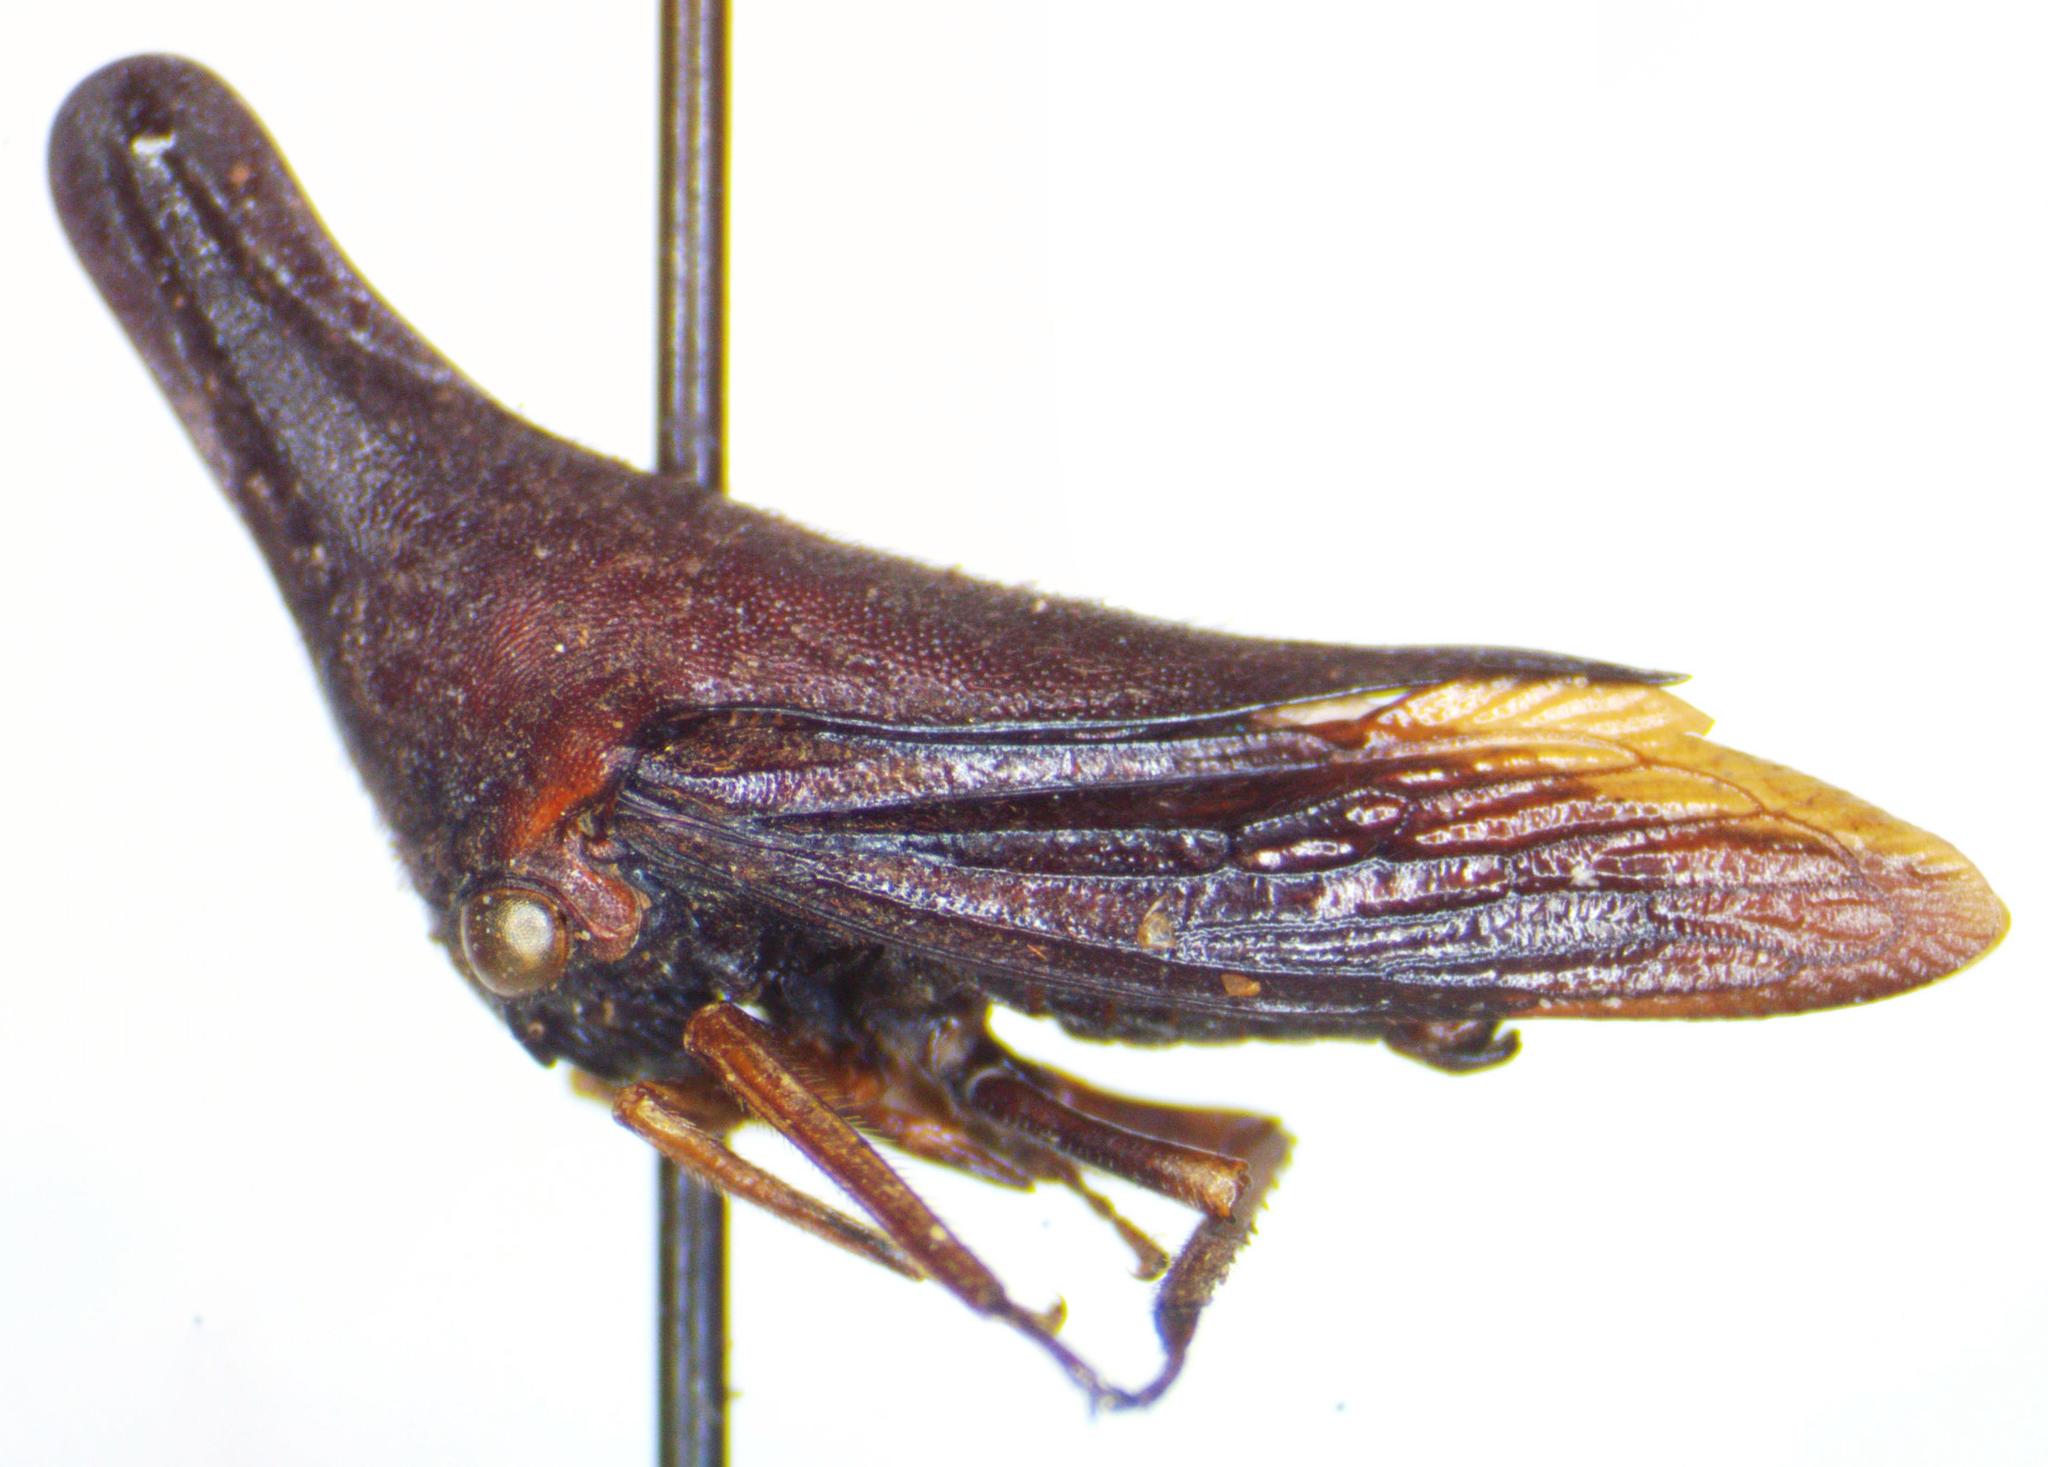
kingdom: Animalia
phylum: Arthropoda
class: Insecta
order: Hemiptera
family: Membracidae
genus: Aconophora
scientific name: Aconophora marginata
